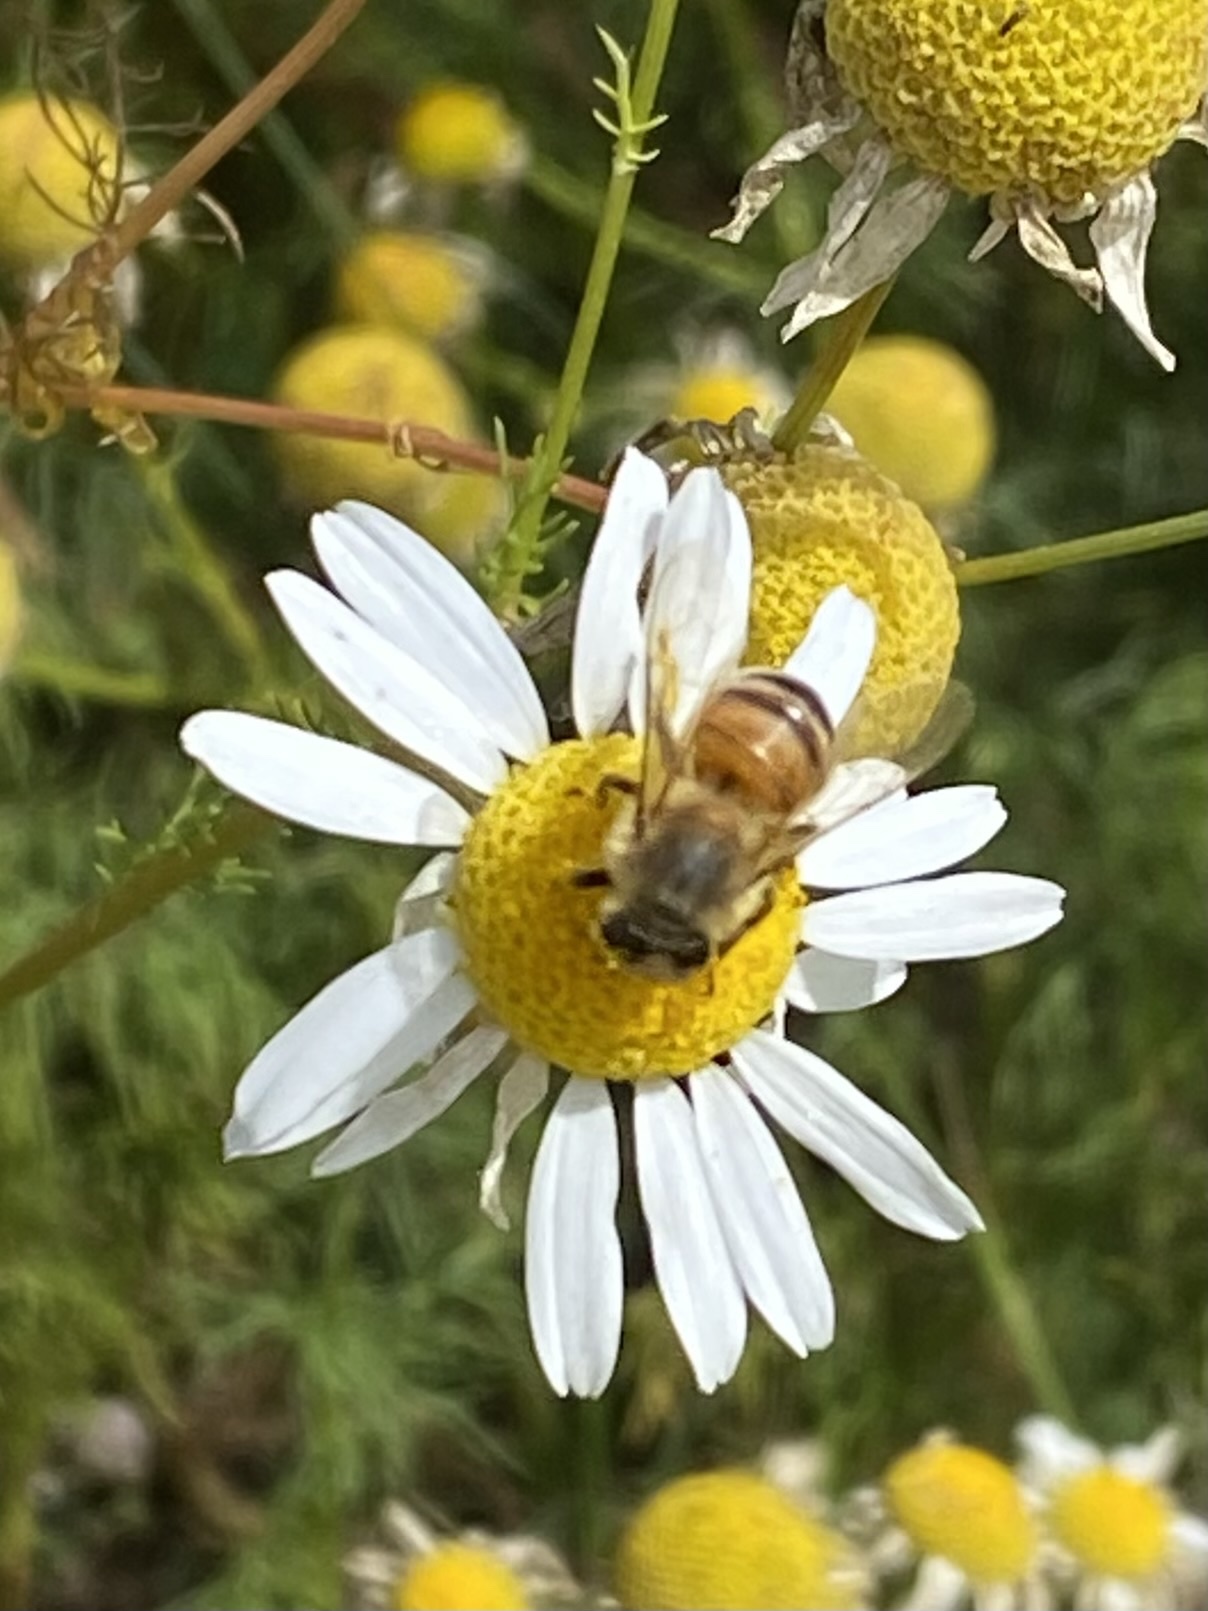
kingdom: Animalia
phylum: Arthropoda
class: Insecta
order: Hymenoptera
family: Apidae
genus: Apis
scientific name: Apis mellifera
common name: Honey bee
